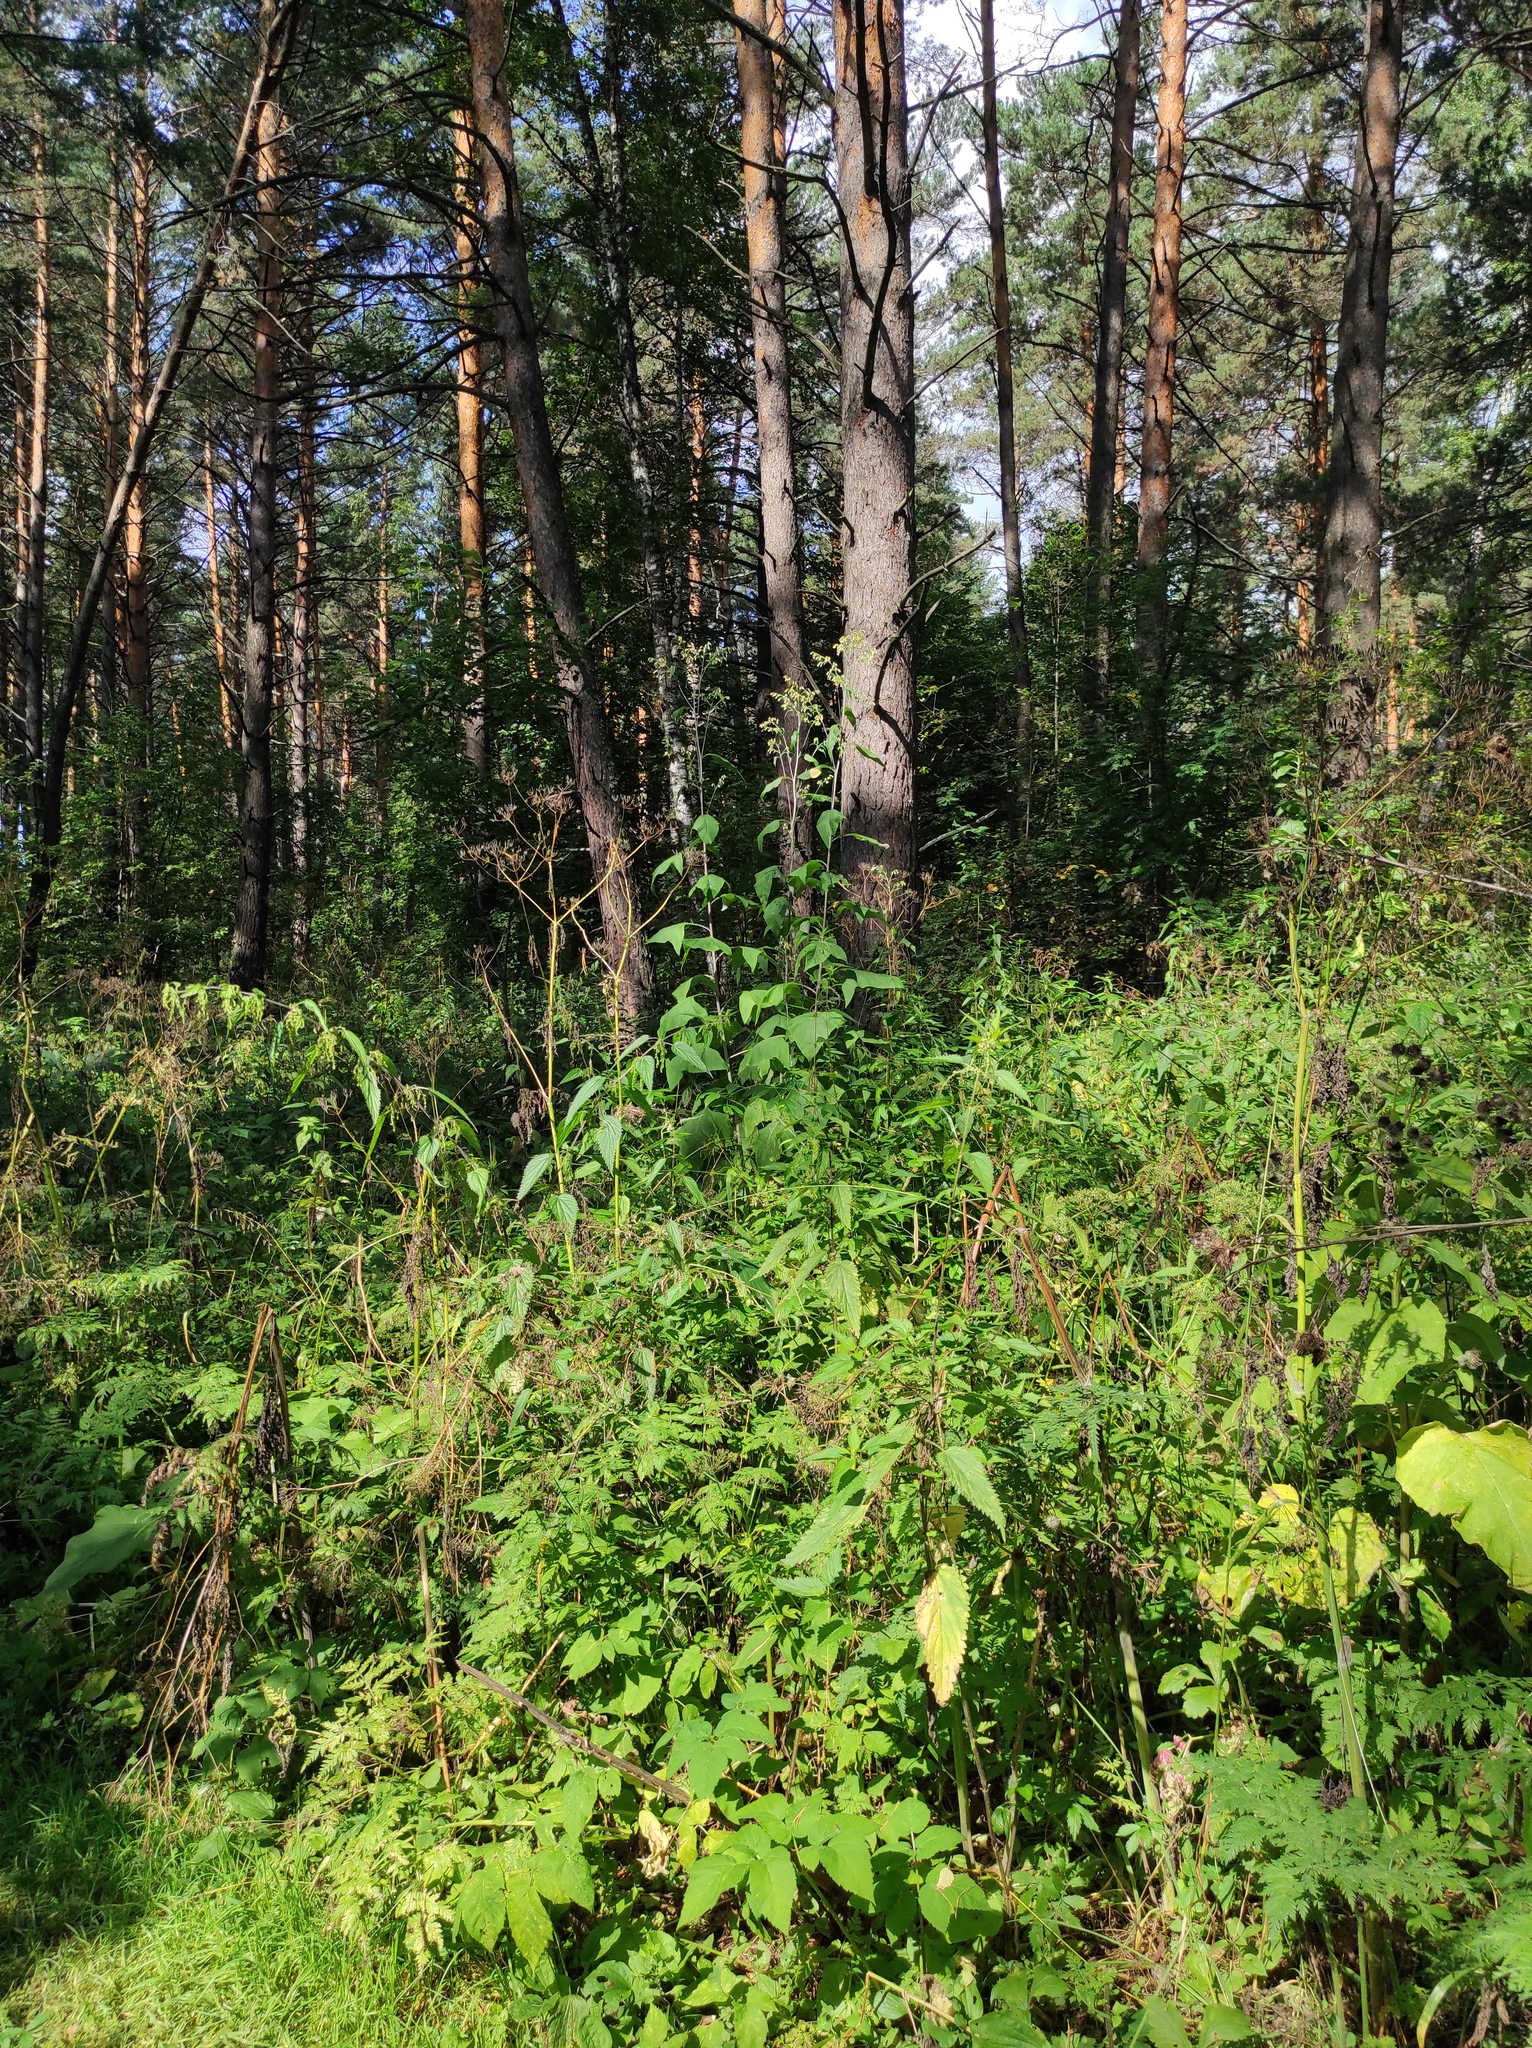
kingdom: Plantae
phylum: Tracheophyta
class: Pinopsida
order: Pinales
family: Pinaceae
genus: Pinus
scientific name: Pinus sylvestris
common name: Scots pine
